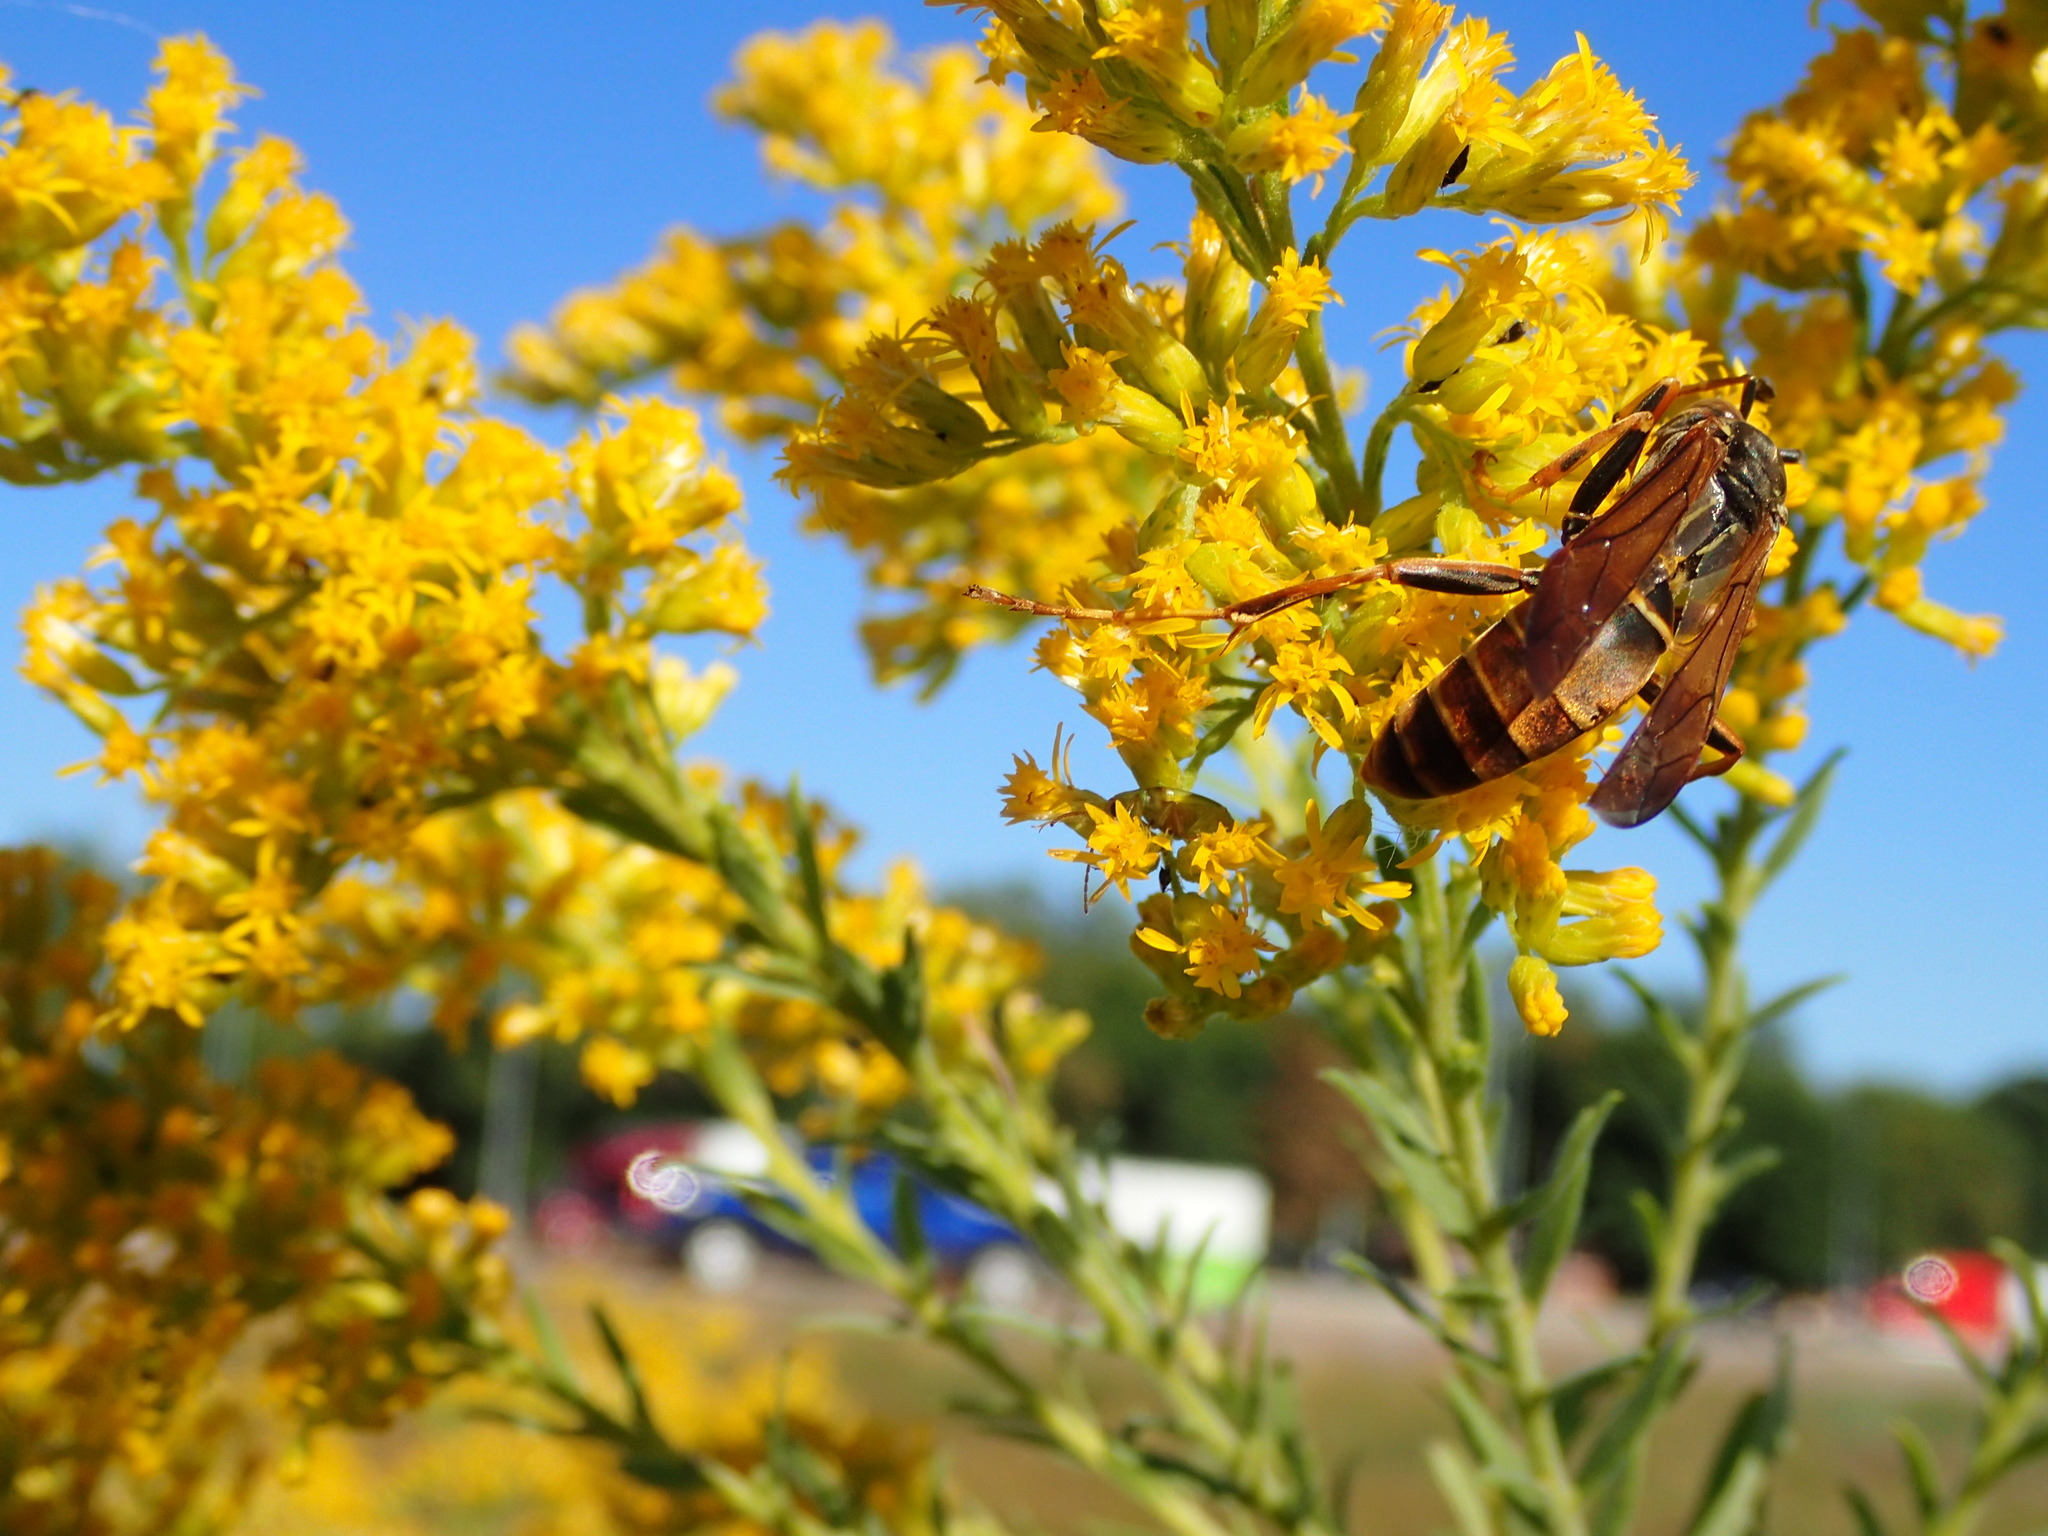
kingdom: Animalia
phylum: Arthropoda
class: Insecta
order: Hymenoptera
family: Eumenidae
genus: Polistes
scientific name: Polistes fuscatus
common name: Dark paper wasp
